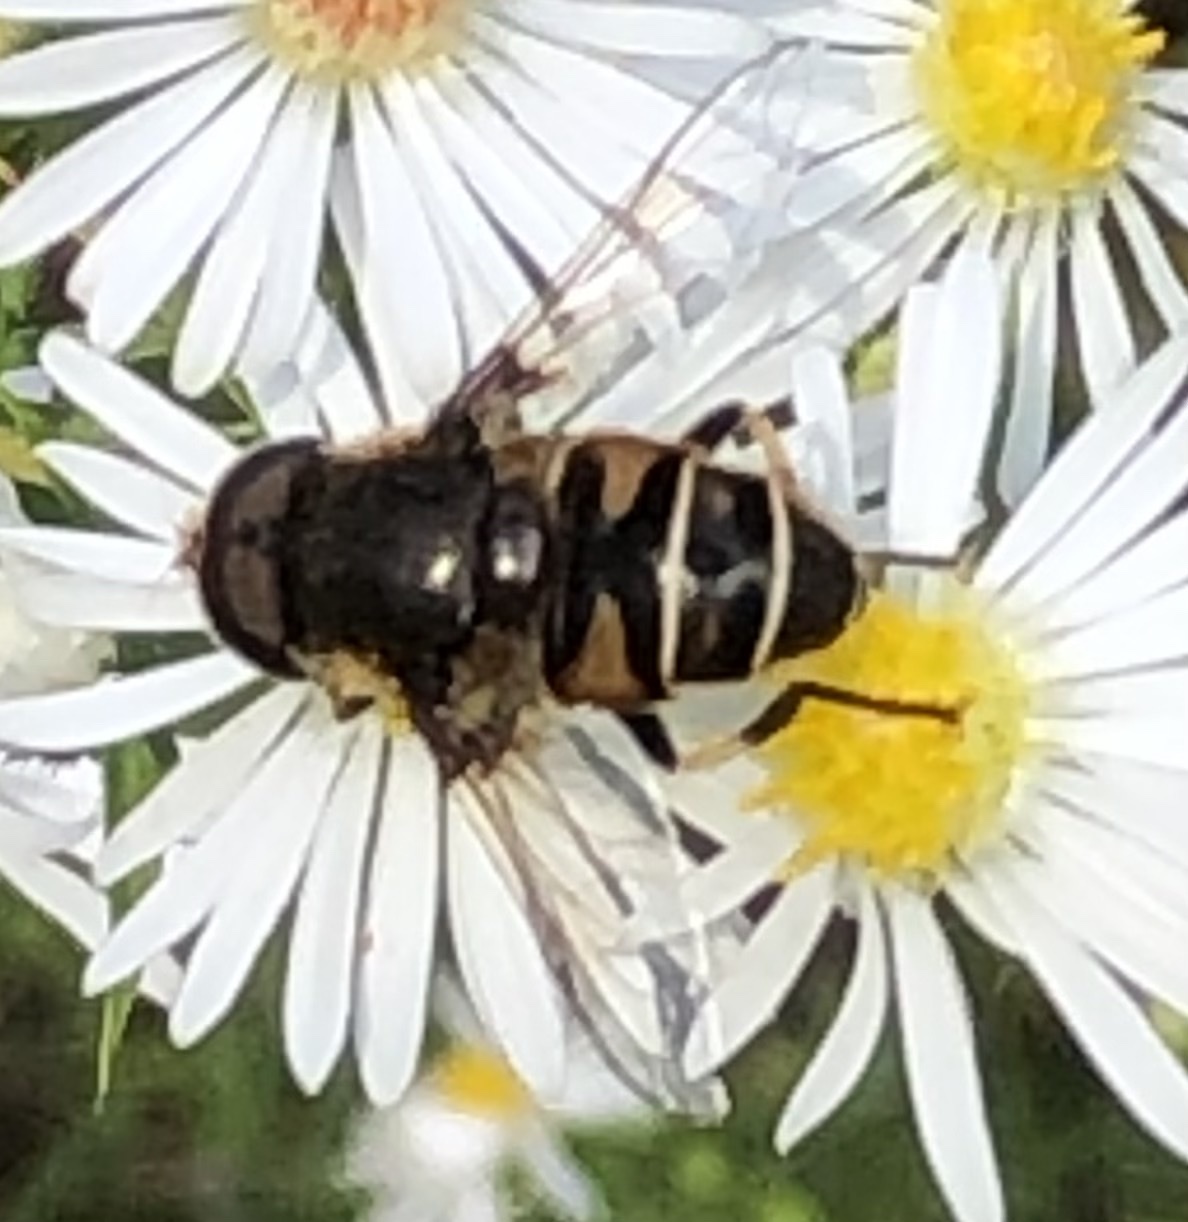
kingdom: Animalia
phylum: Arthropoda
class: Insecta
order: Diptera
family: Syrphidae
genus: Eristalis
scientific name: Eristalis dimidiata
